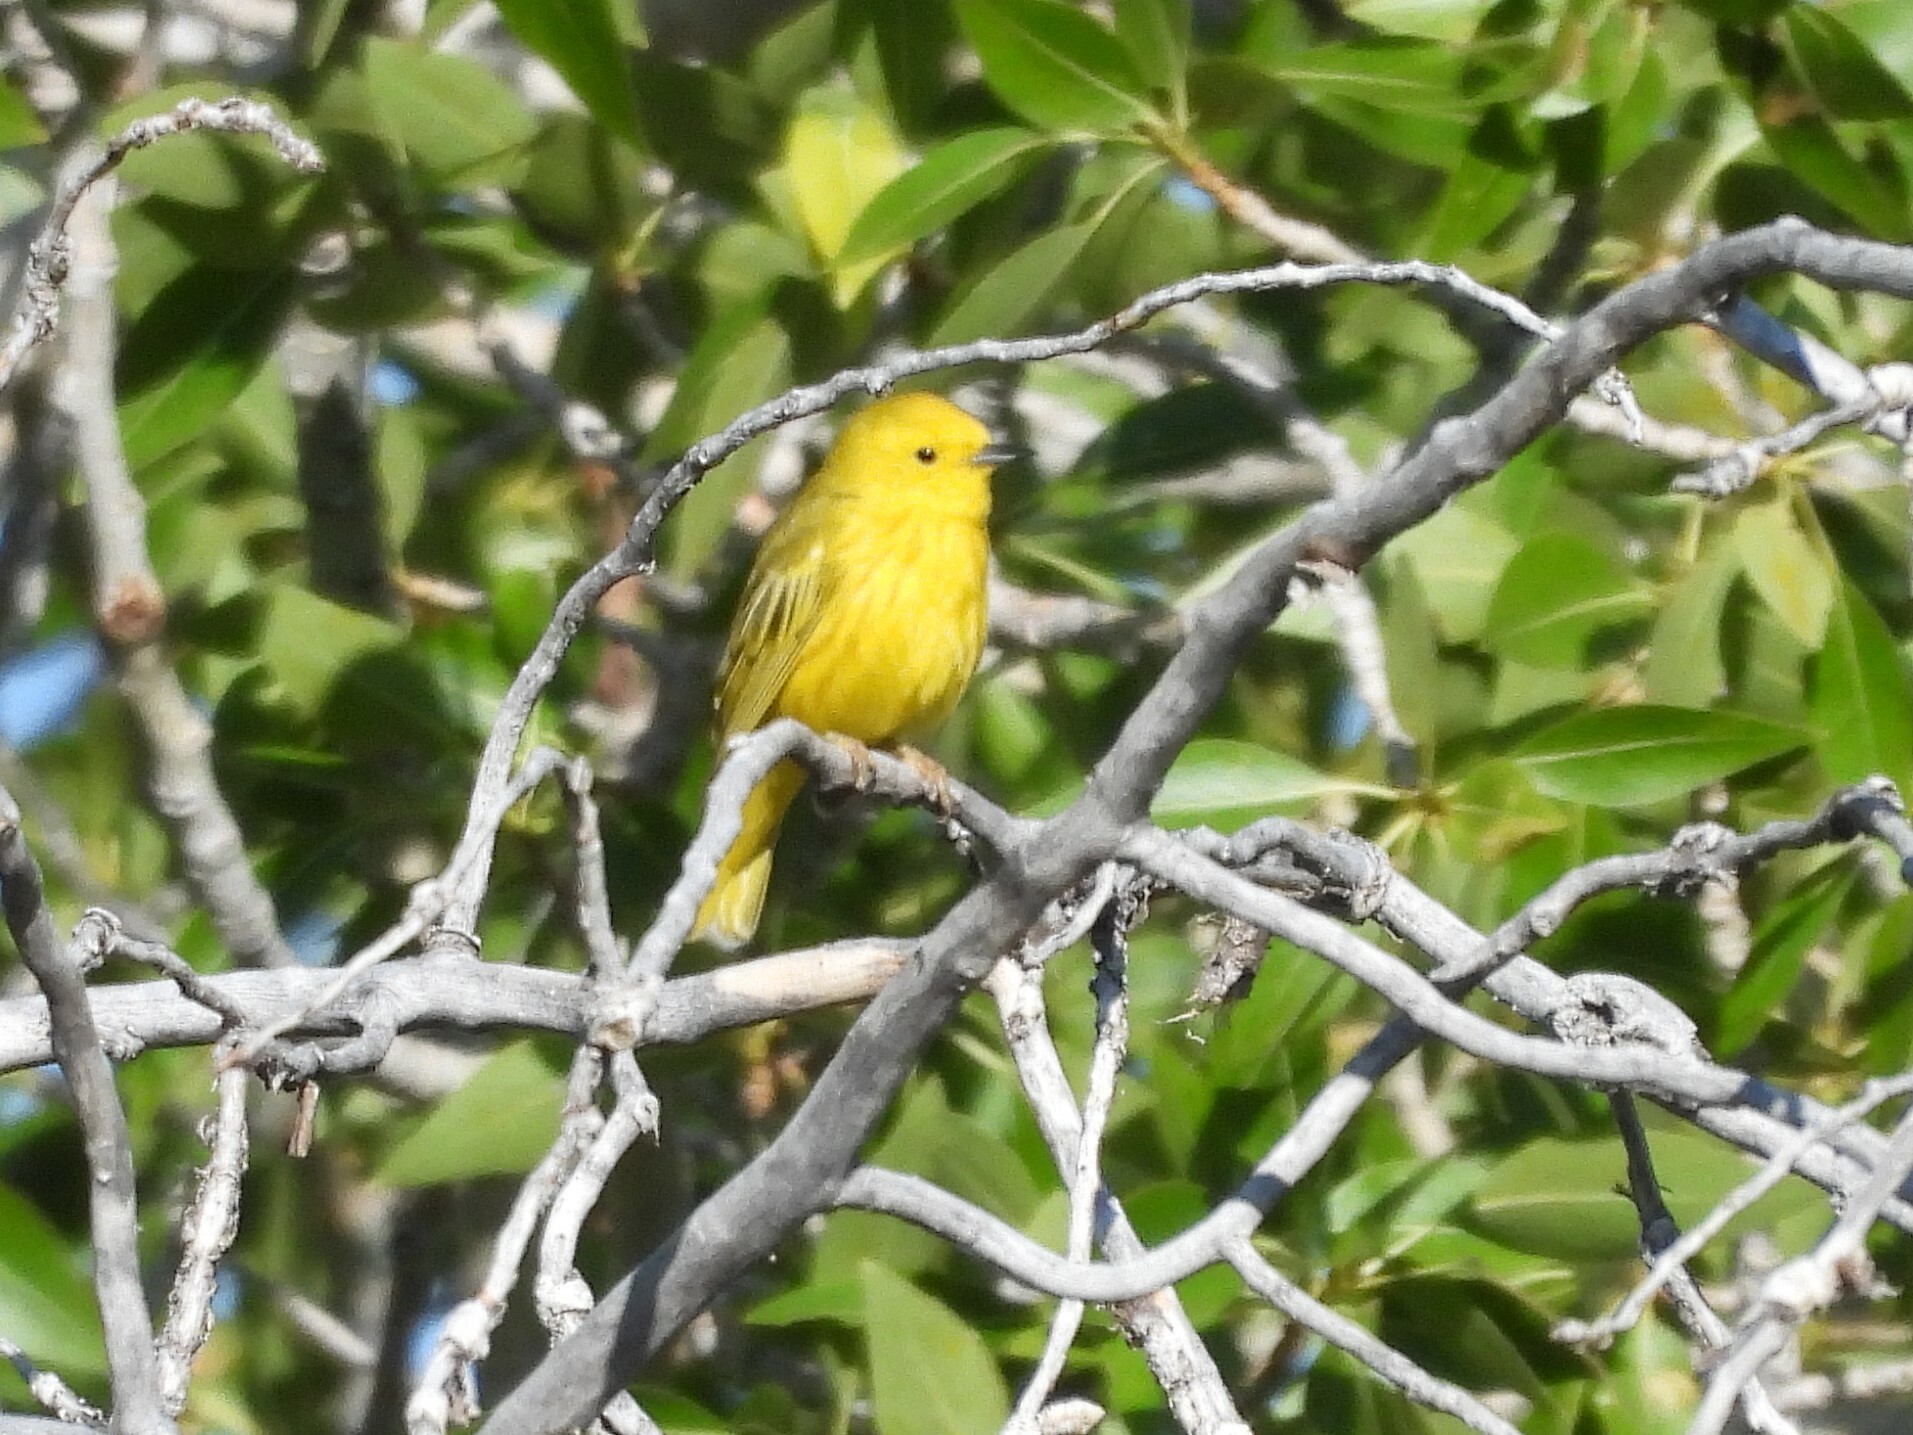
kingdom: Animalia
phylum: Chordata
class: Aves
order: Passeriformes
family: Parulidae
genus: Setophaga
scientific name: Setophaga petechia
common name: Yellow warbler
